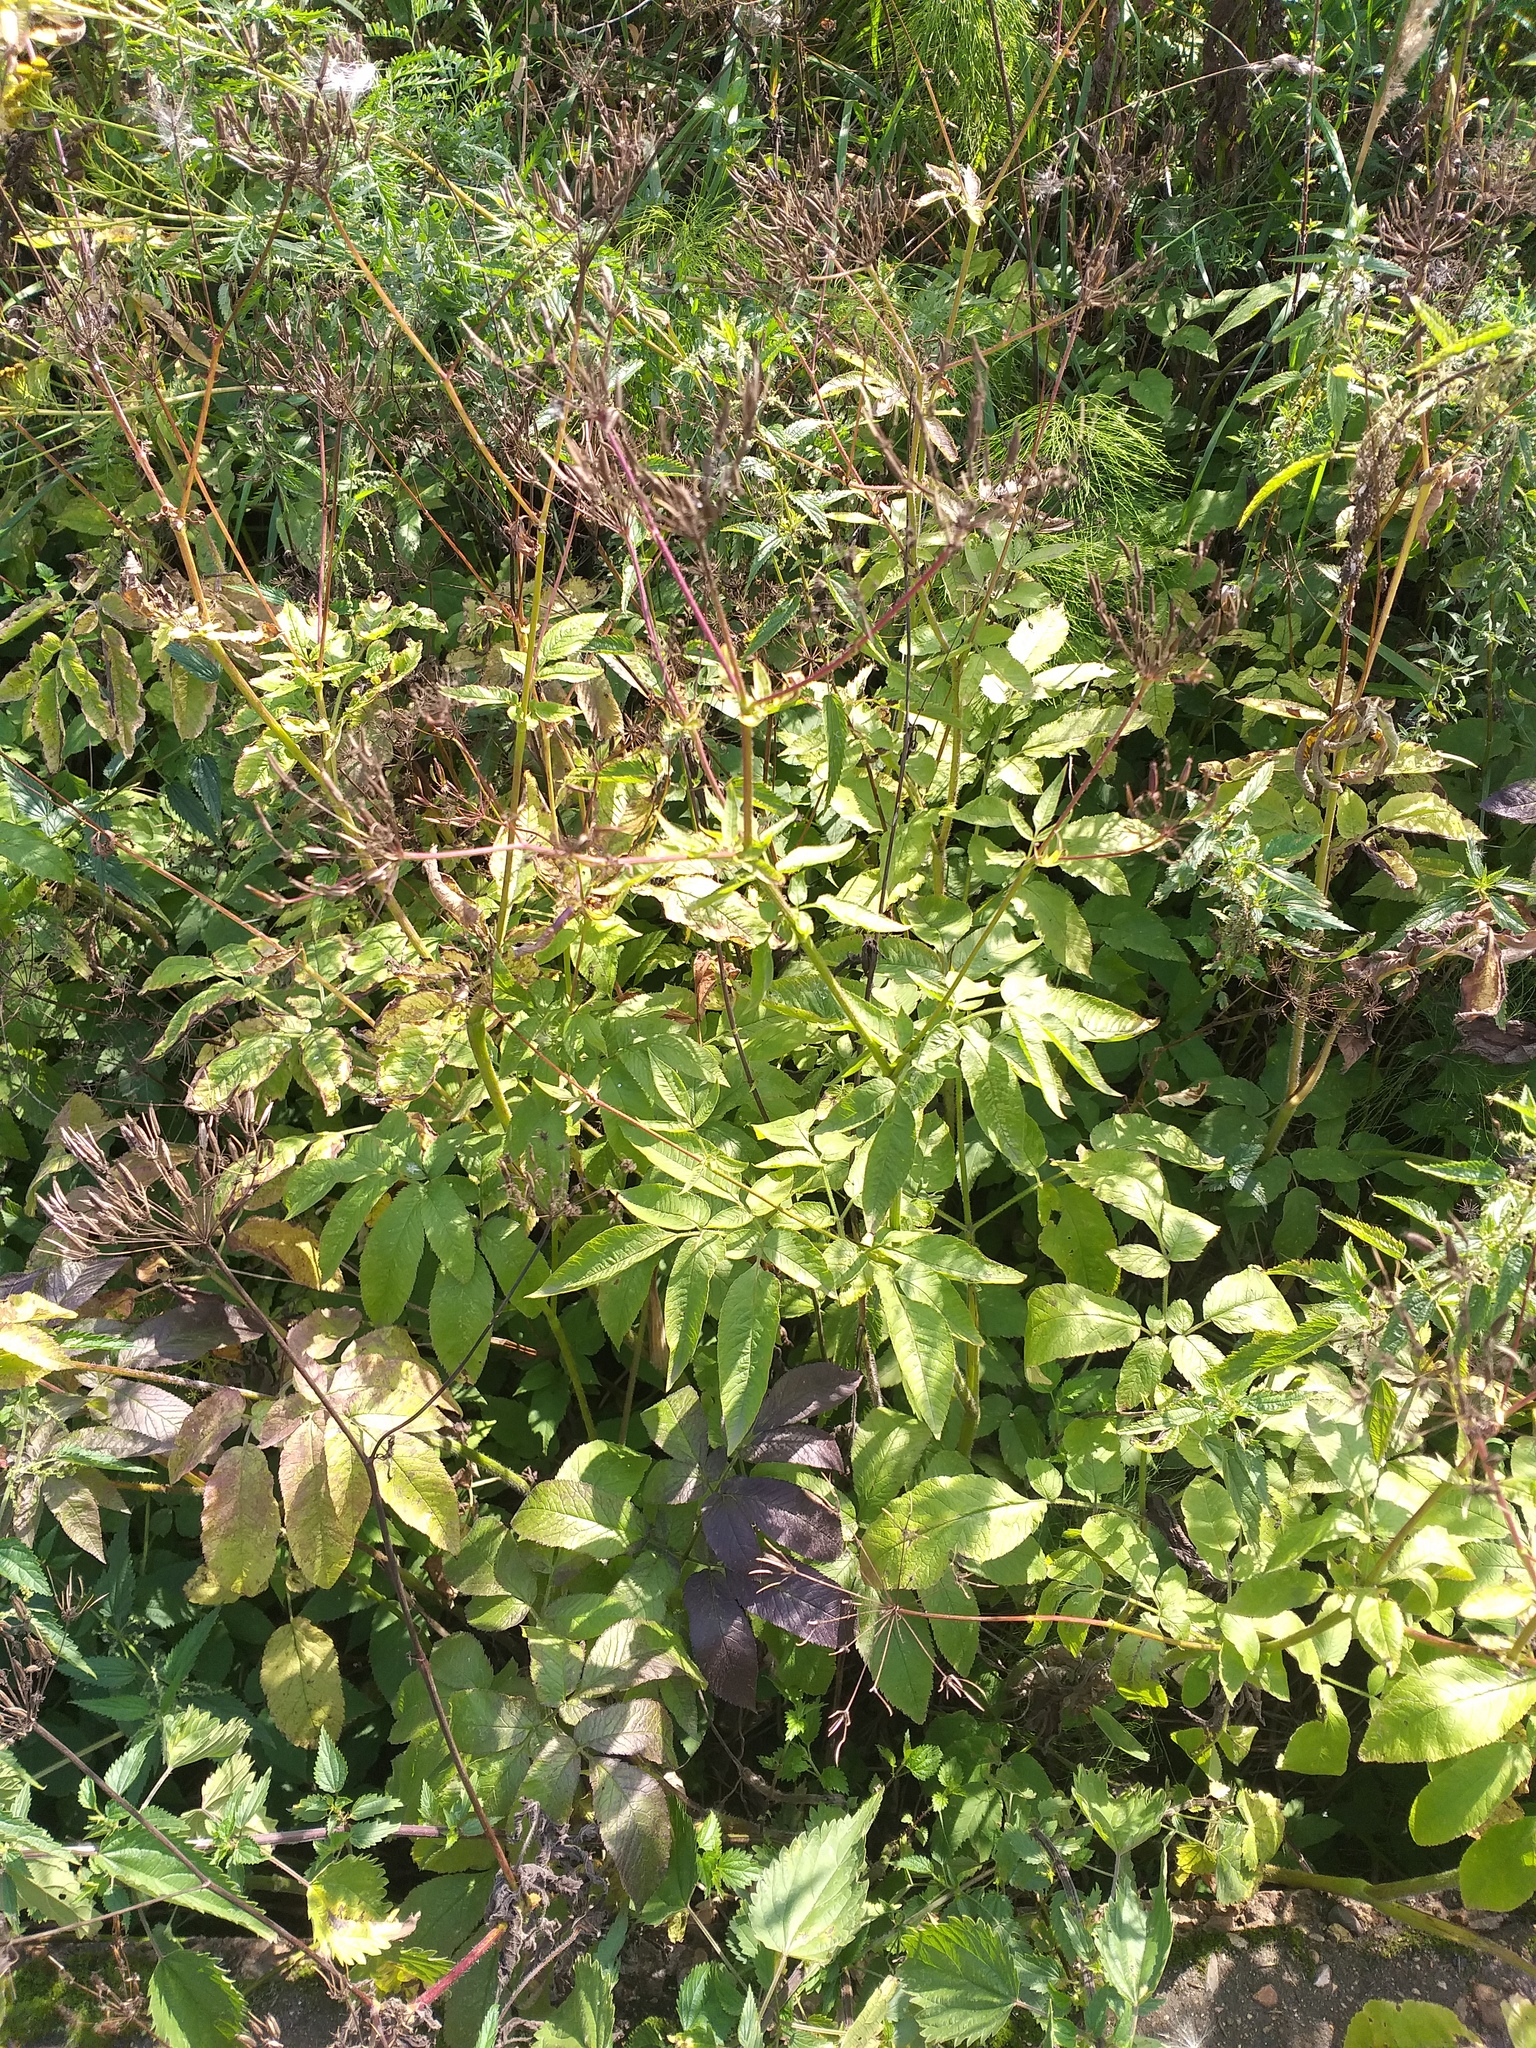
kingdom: Plantae
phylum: Tracheophyta
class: Magnoliopsida
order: Apiales
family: Apiaceae
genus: Chaerophyllum
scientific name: Chaerophyllum aromaticum
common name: Broadleaf chervil
